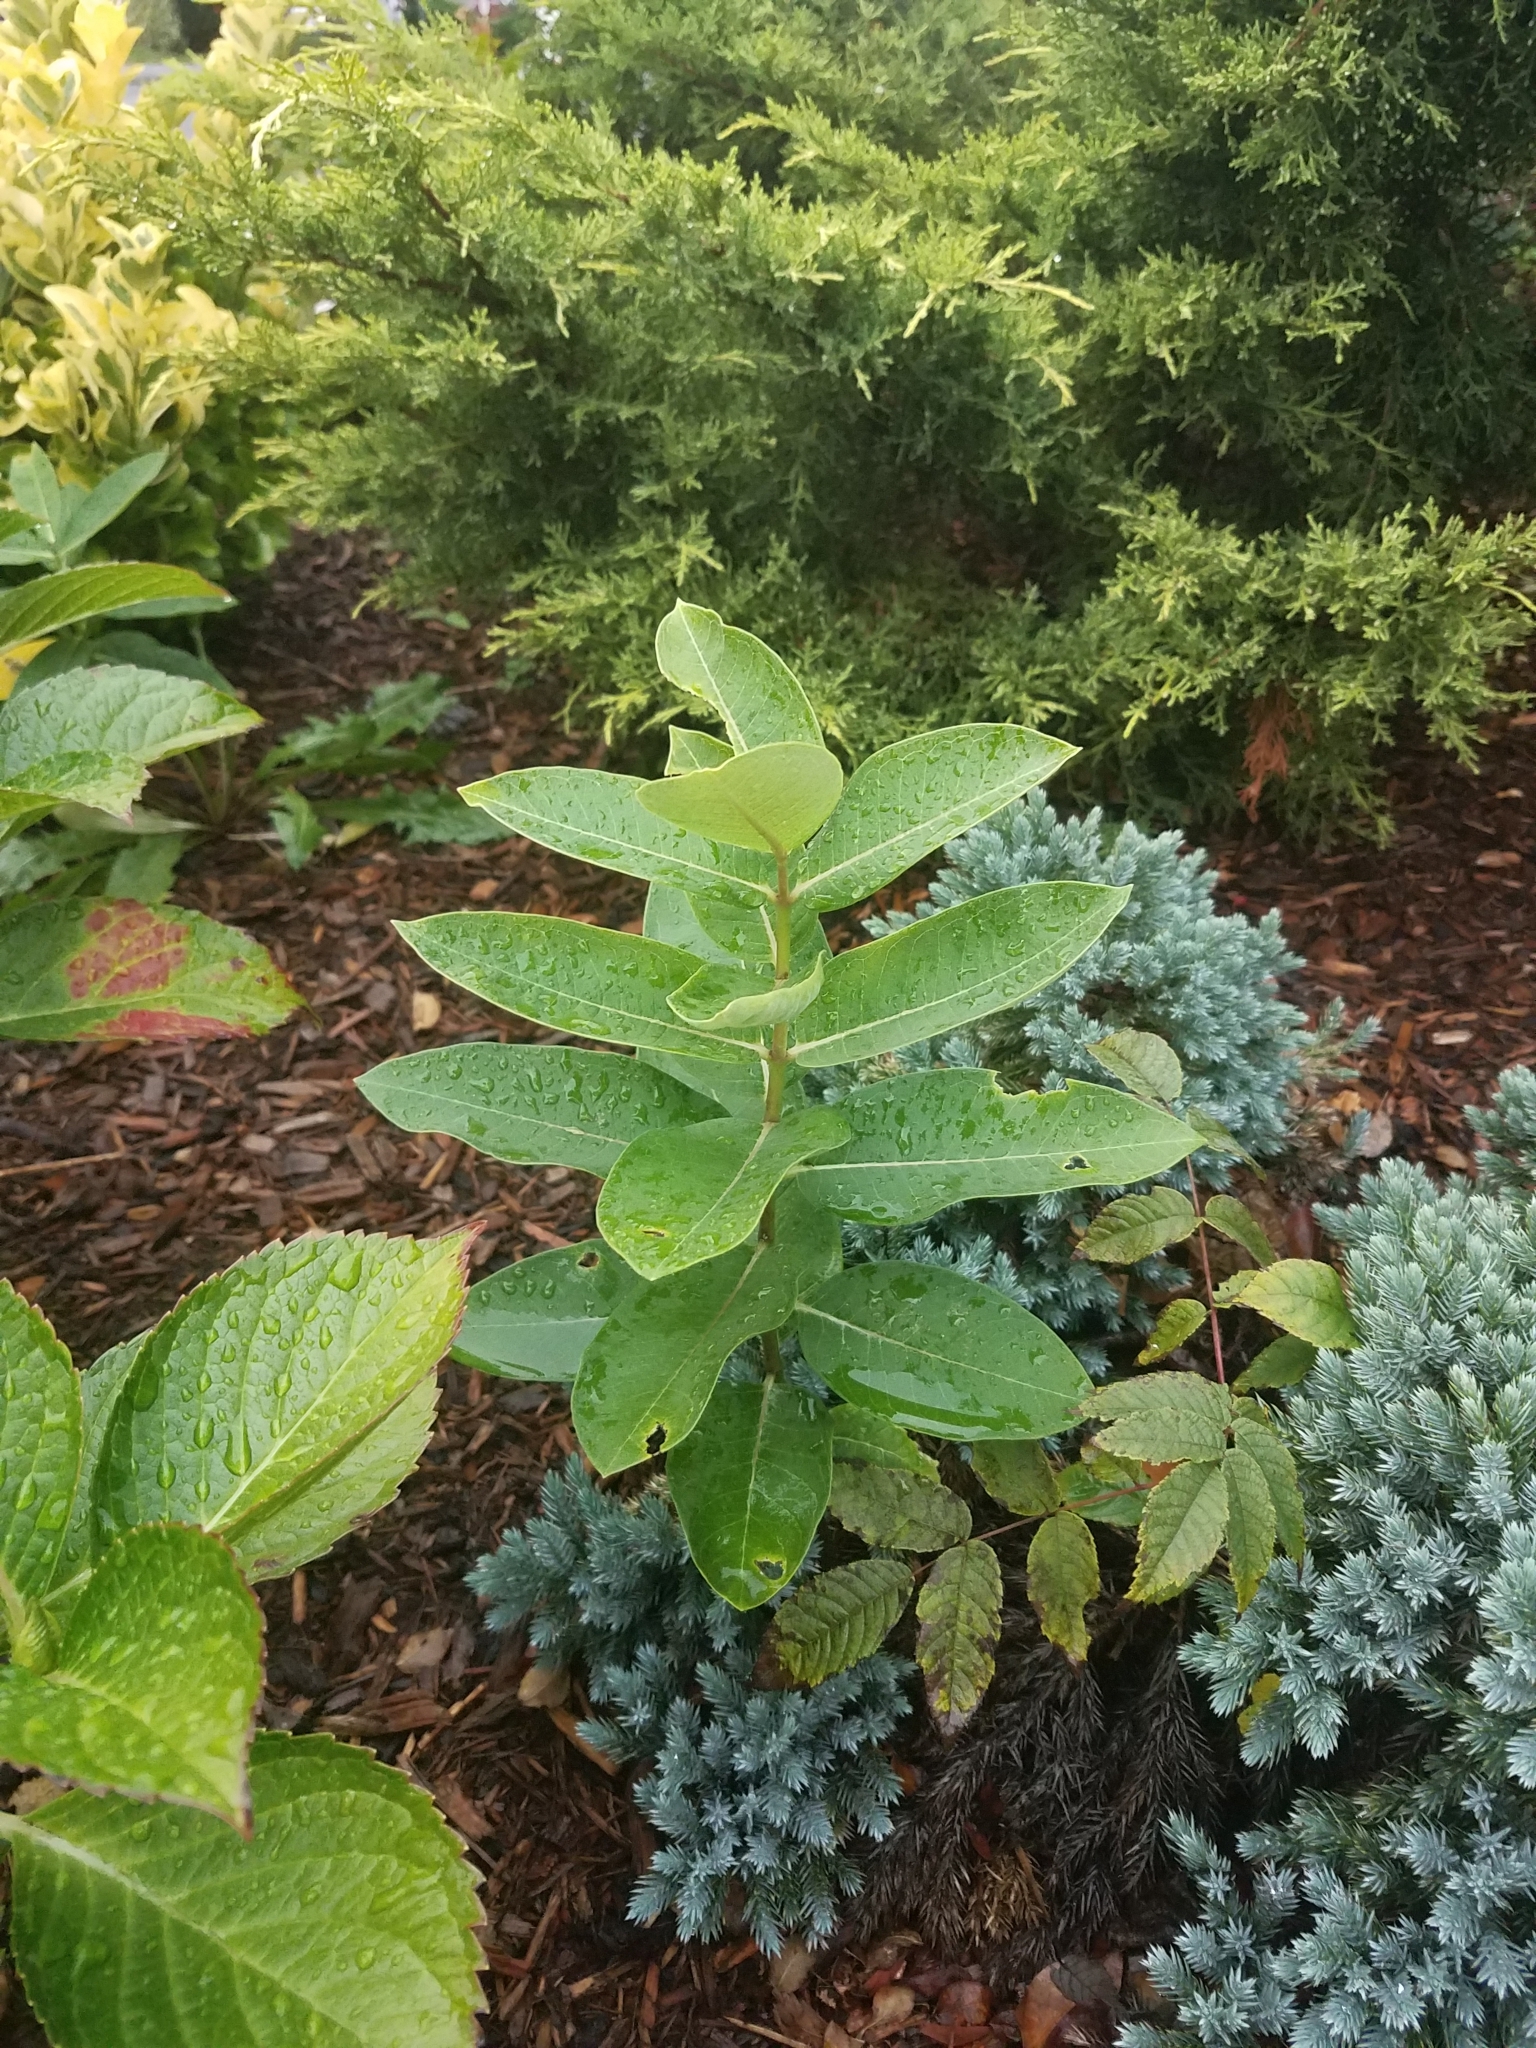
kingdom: Plantae
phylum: Tracheophyta
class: Magnoliopsida
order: Gentianales
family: Apocynaceae
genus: Asclepias
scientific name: Asclepias syriaca
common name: Common milkweed
